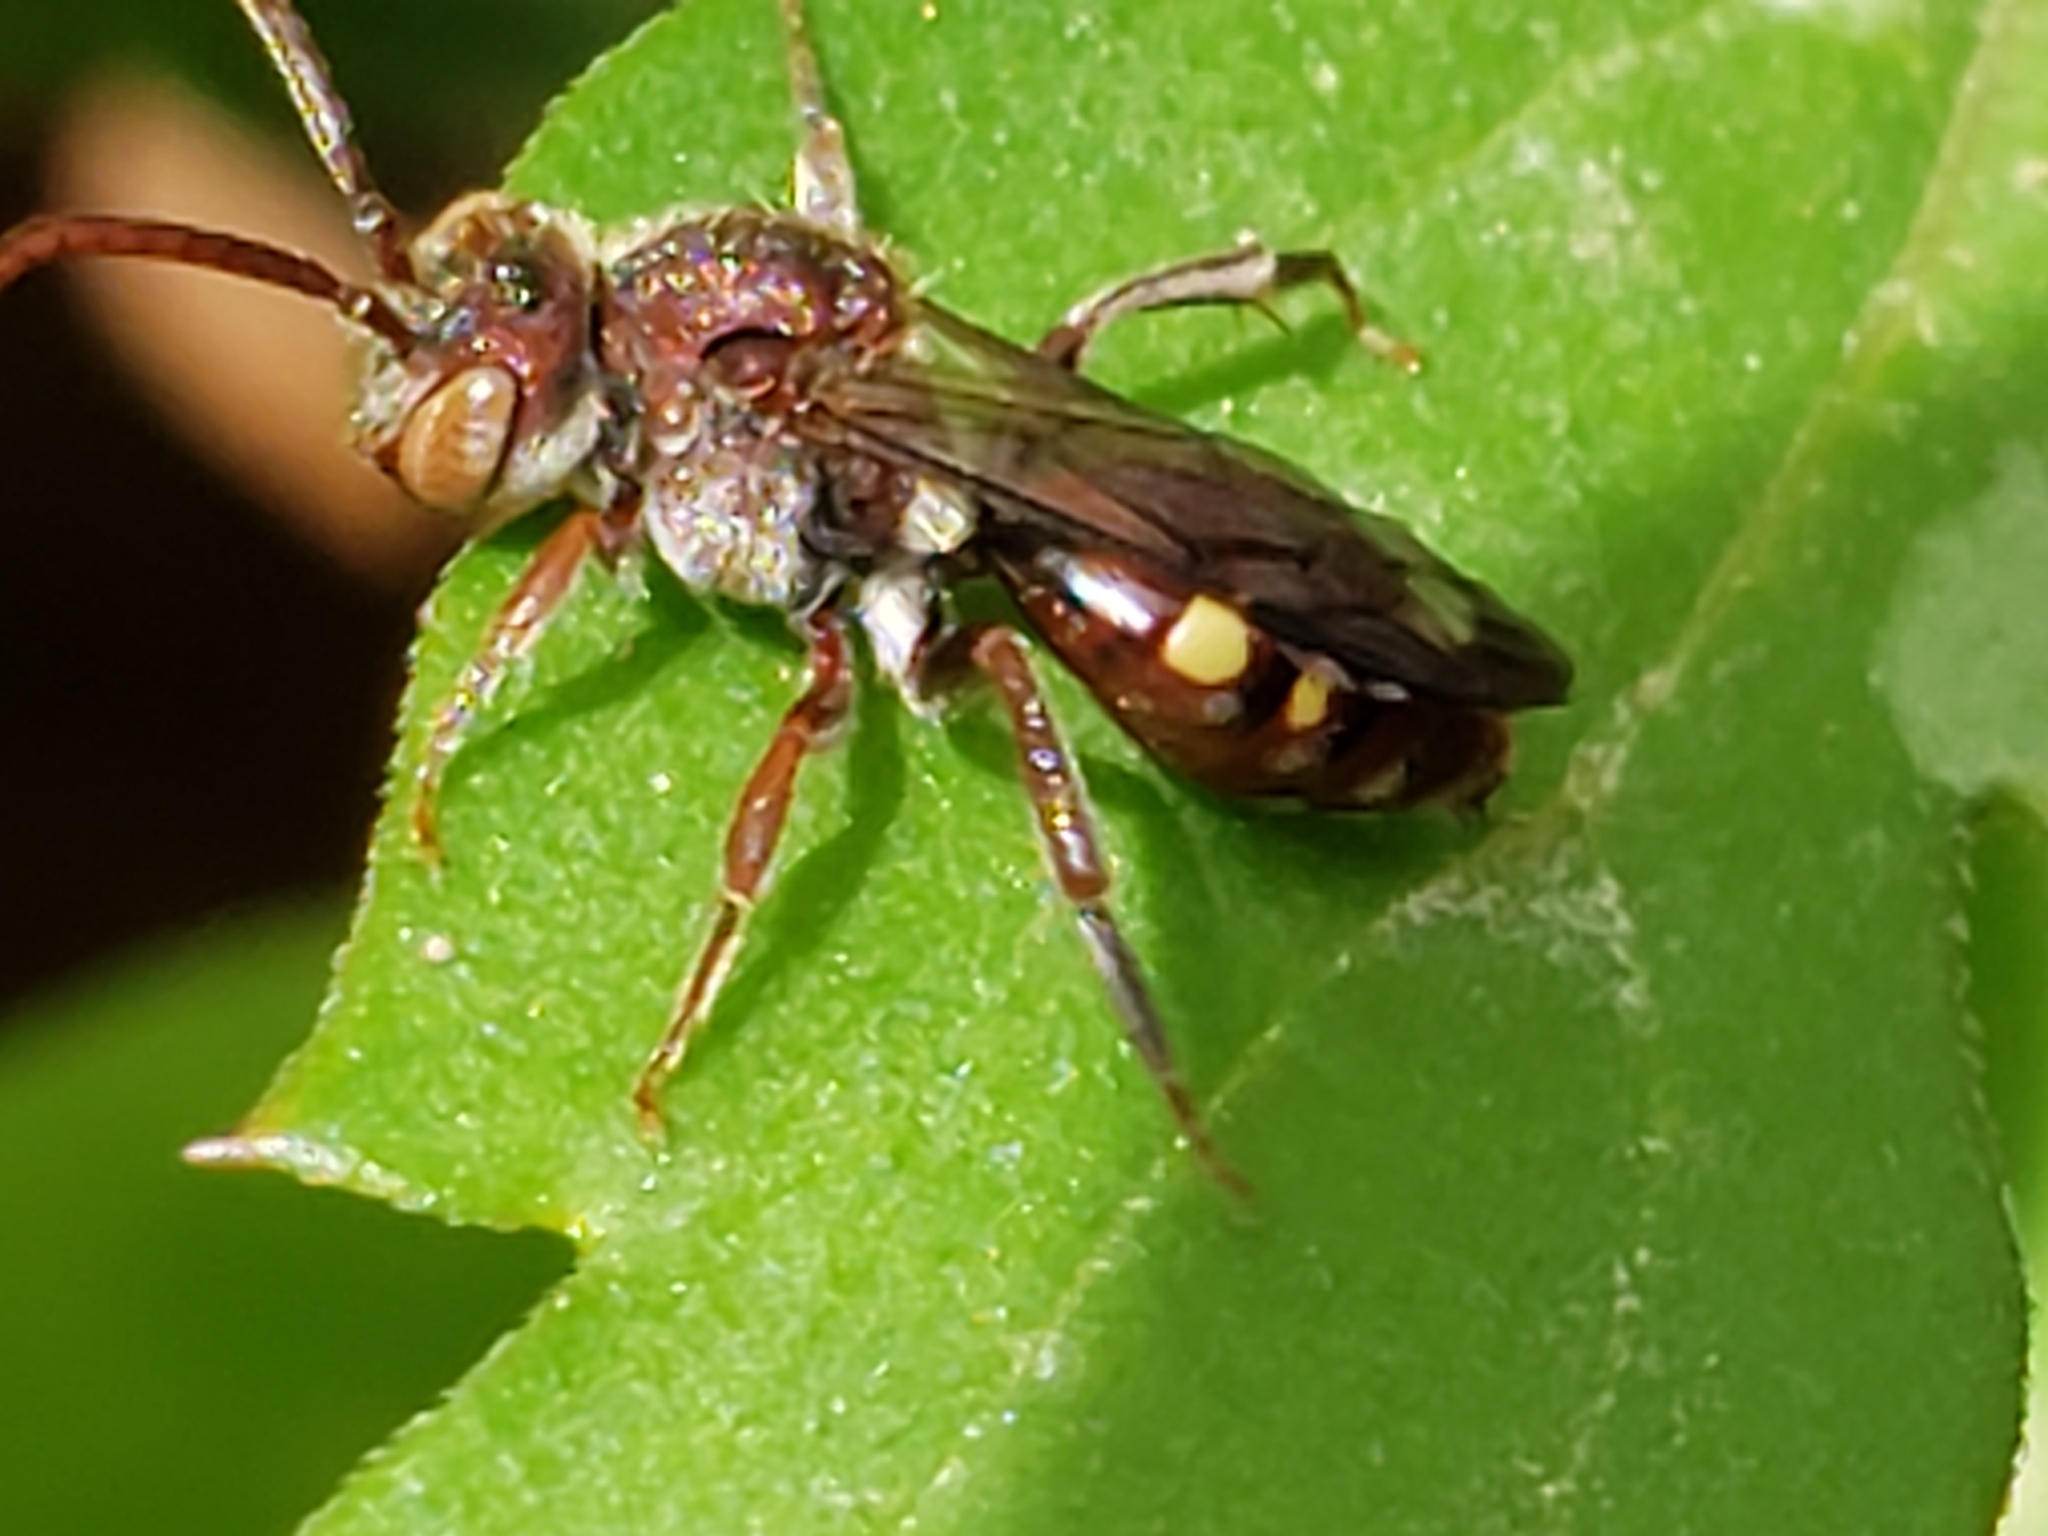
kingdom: Animalia
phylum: Arthropoda
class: Insecta
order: Hymenoptera
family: Apidae
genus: Nomada
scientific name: Nomada
